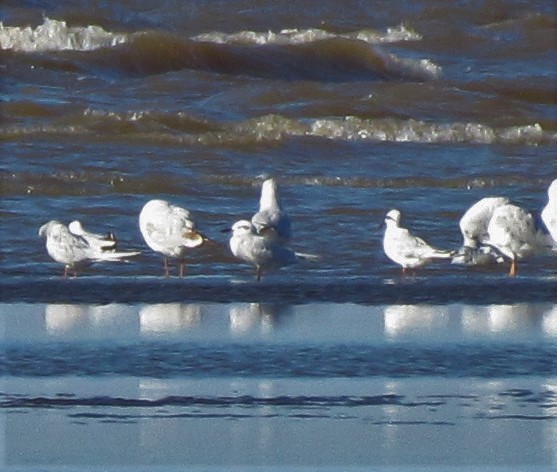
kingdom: Animalia
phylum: Chordata
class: Aves
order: Charadriiformes
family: Laridae
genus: Sterna
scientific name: Sterna trudeaui
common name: Snowy-crowned tern
